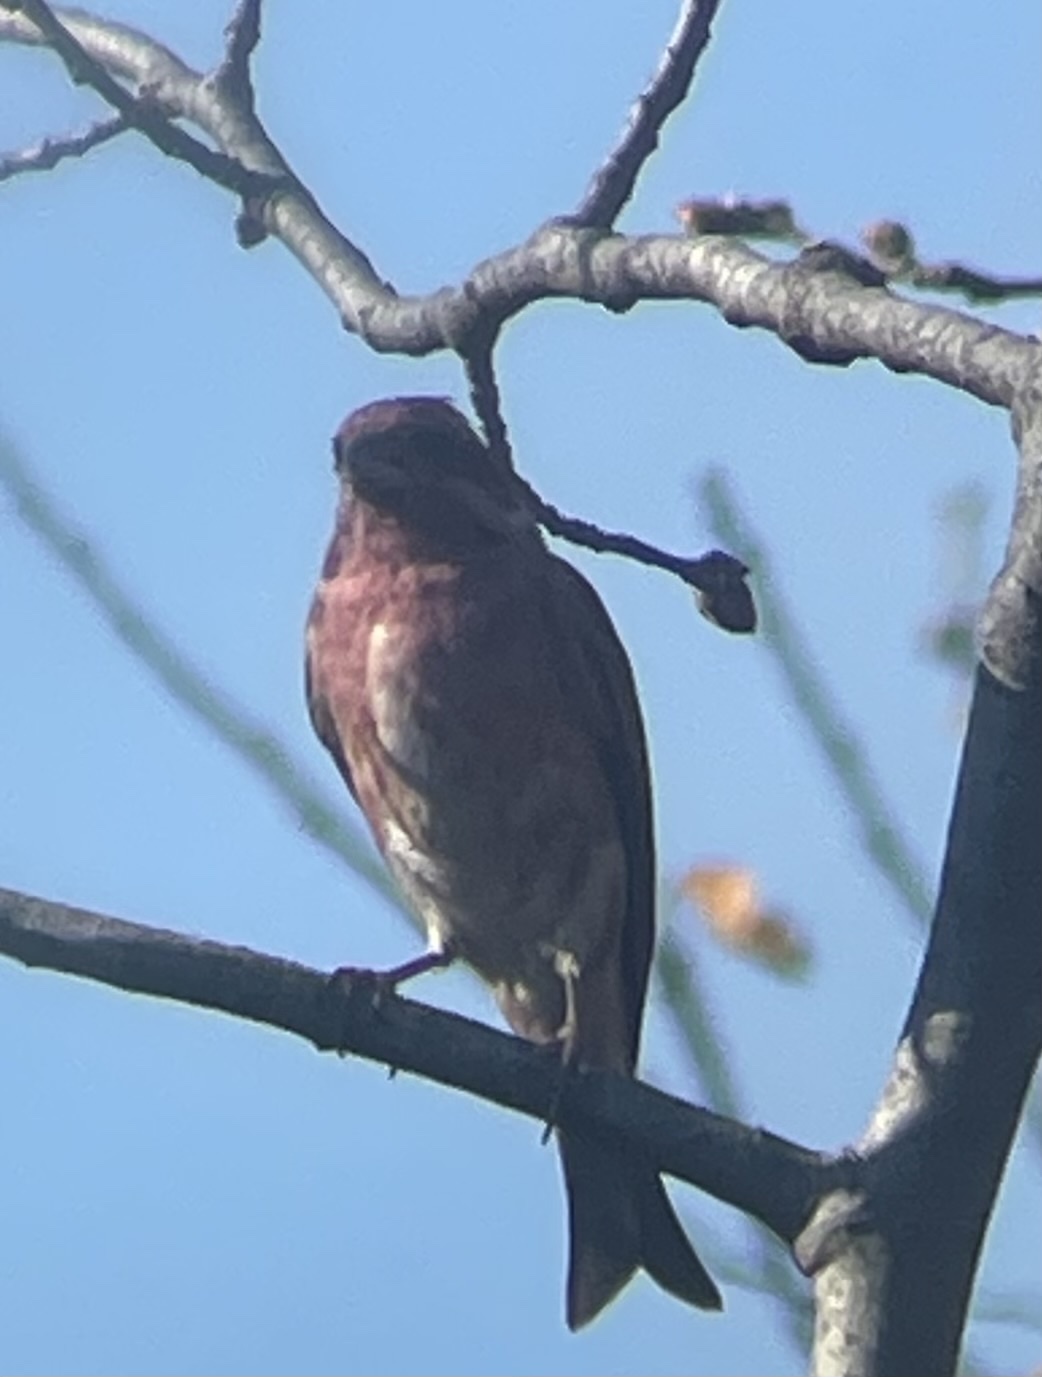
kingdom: Animalia
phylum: Chordata
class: Aves
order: Passeriformes
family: Fringillidae
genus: Haemorhous
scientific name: Haemorhous purpureus
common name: Purple finch
